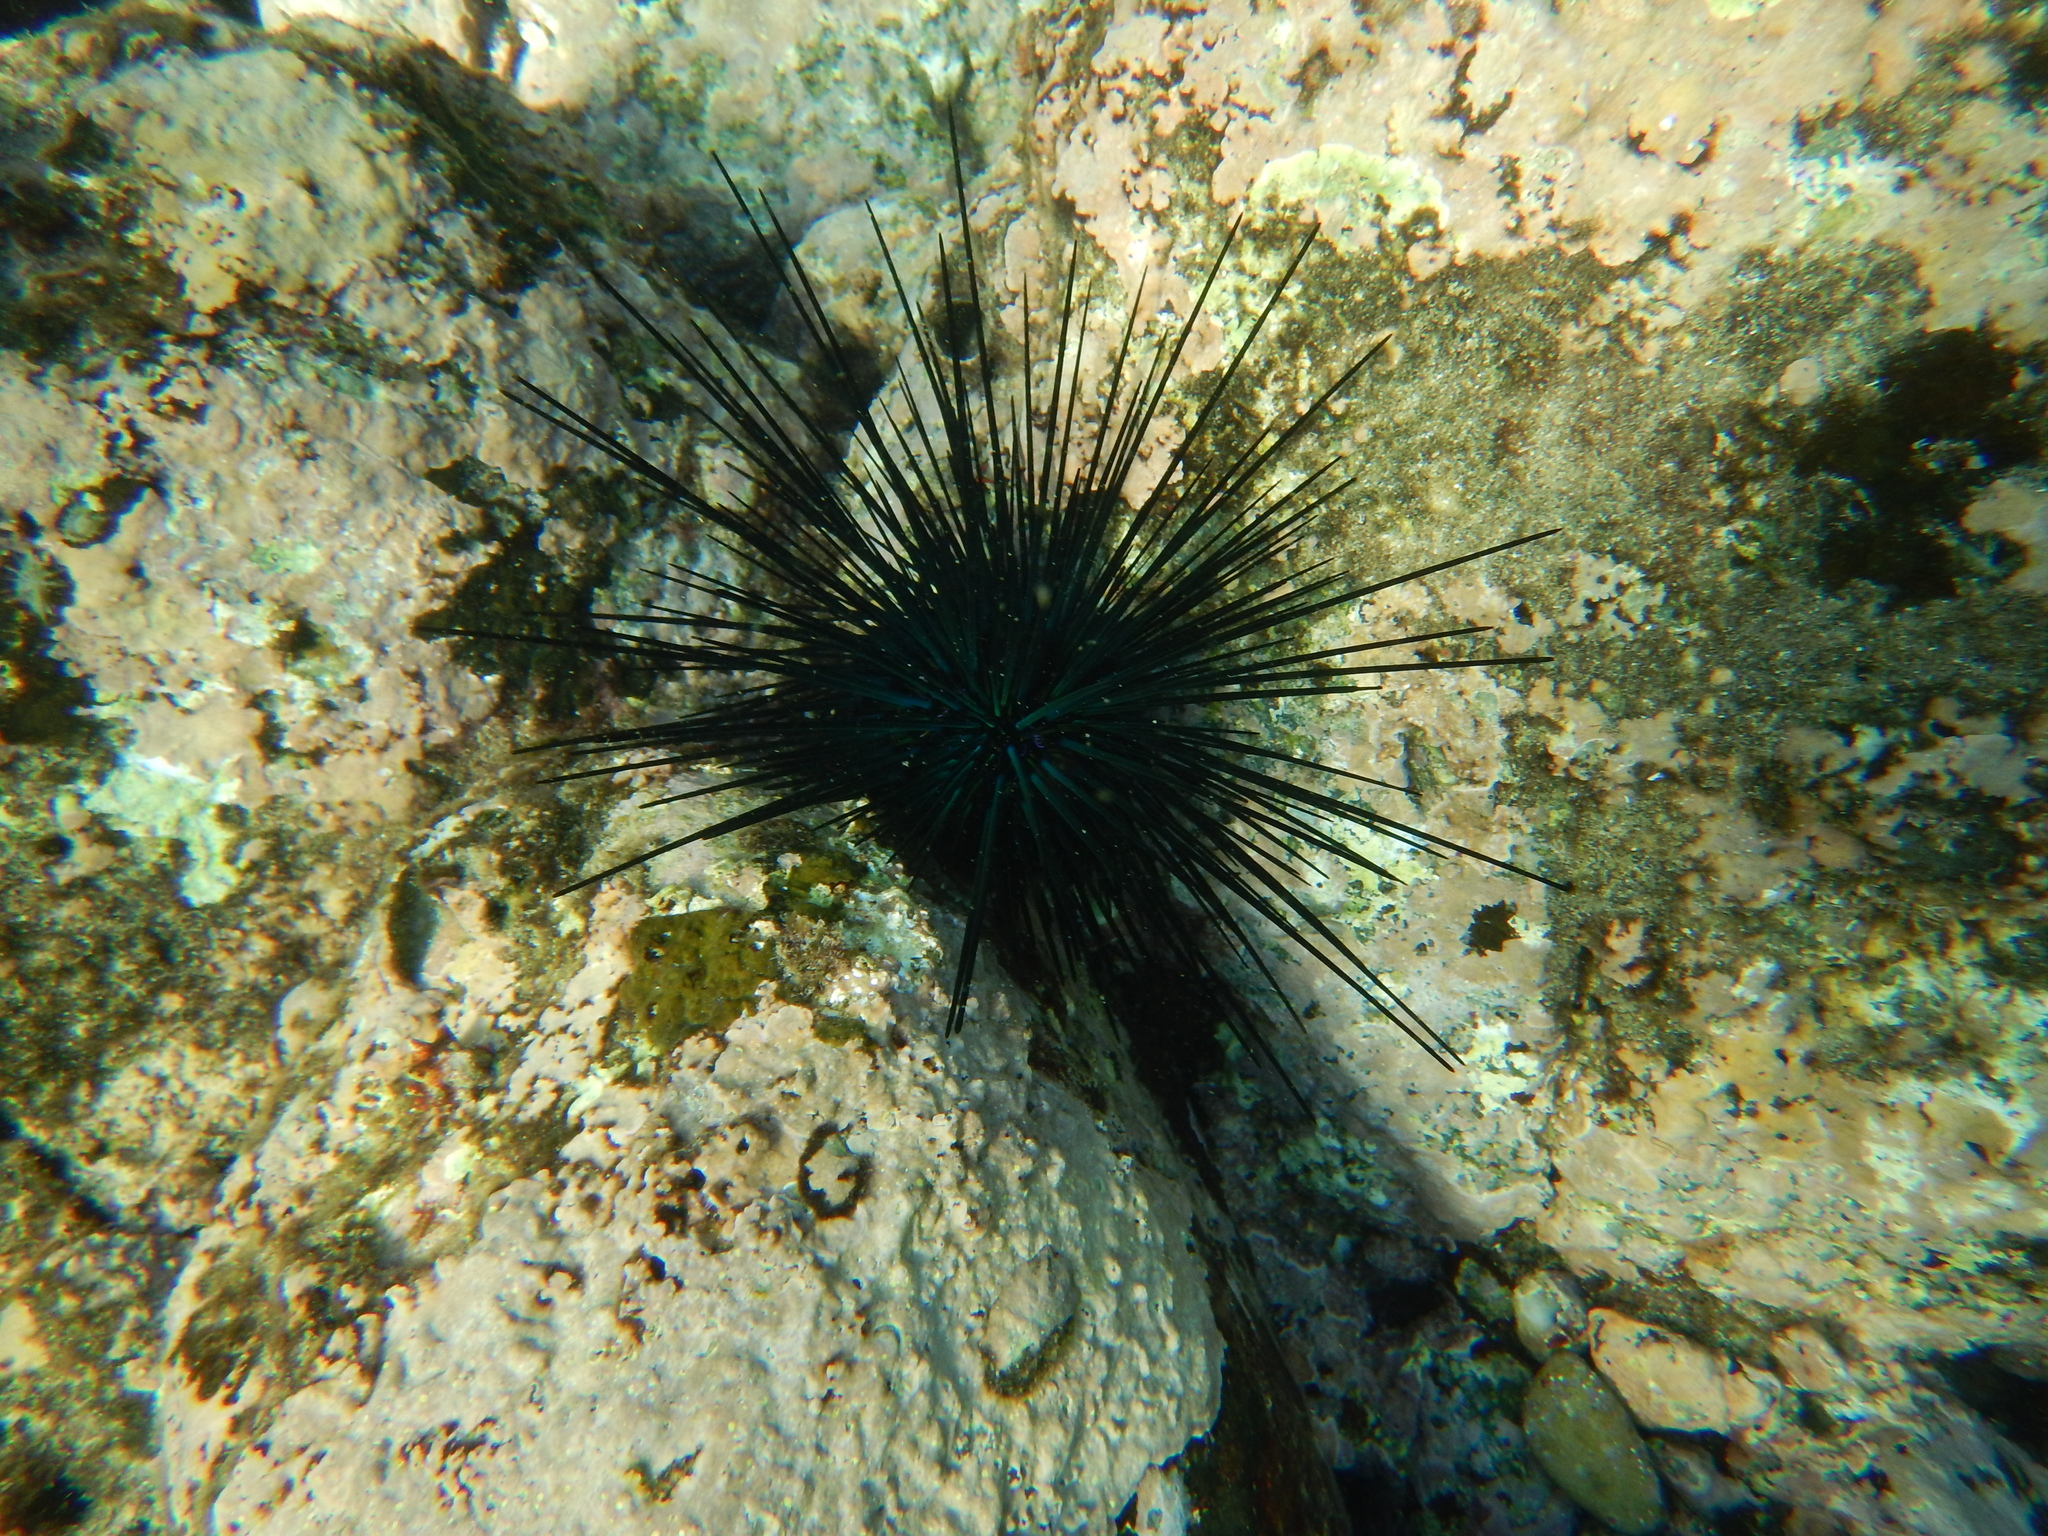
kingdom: Animalia
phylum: Echinodermata
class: Echinoidea
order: Diadematoida
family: Diadematidae
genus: Diadema
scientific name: Diadema mexicanum
